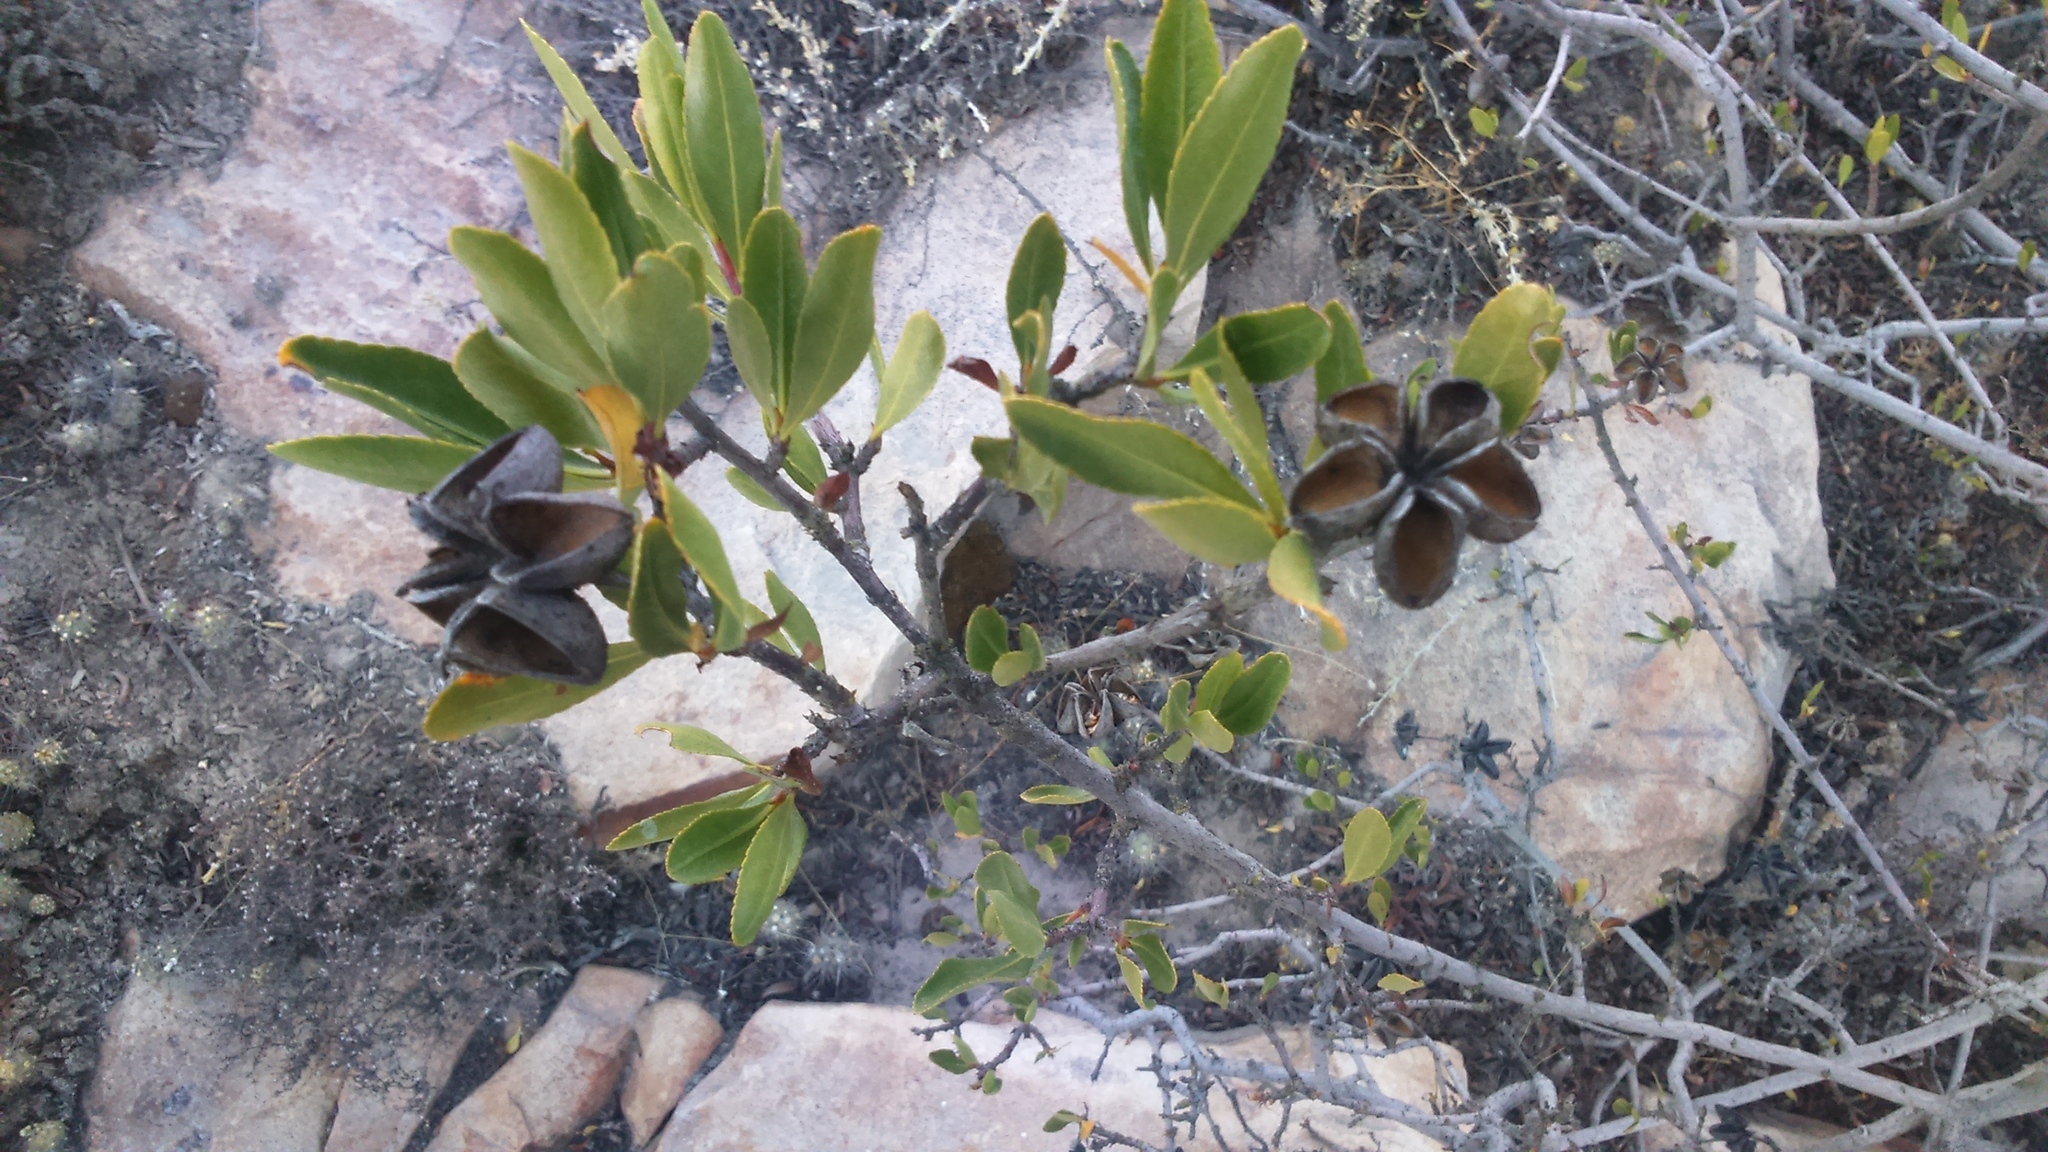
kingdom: Plantae
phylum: Tracheophyta
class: Magnoliopsida
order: Rosales
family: Rosaceae
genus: Kageneckia
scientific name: Kageneckia lanceolata
